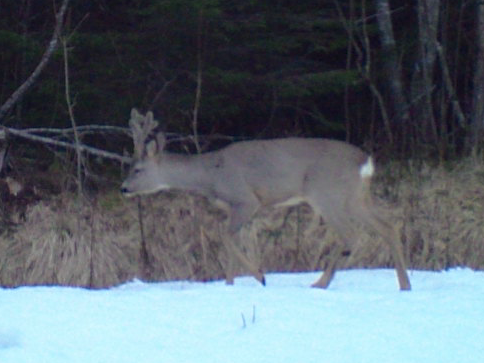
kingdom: Animalia
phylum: Chordata
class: Mammalia
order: Artiodactyla
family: Cervidae
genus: Capreolus
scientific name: Capreolus capreolus
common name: Western roe deer
